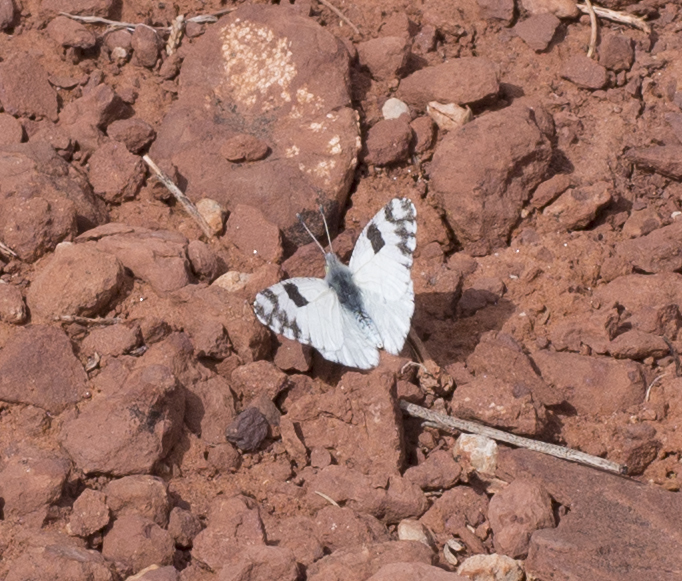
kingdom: Animalia
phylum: Arthropoda
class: Insecta
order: Lepidoptera
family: Pieridae
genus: Euchloe
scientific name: Euchloe lotta
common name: Desert marble
